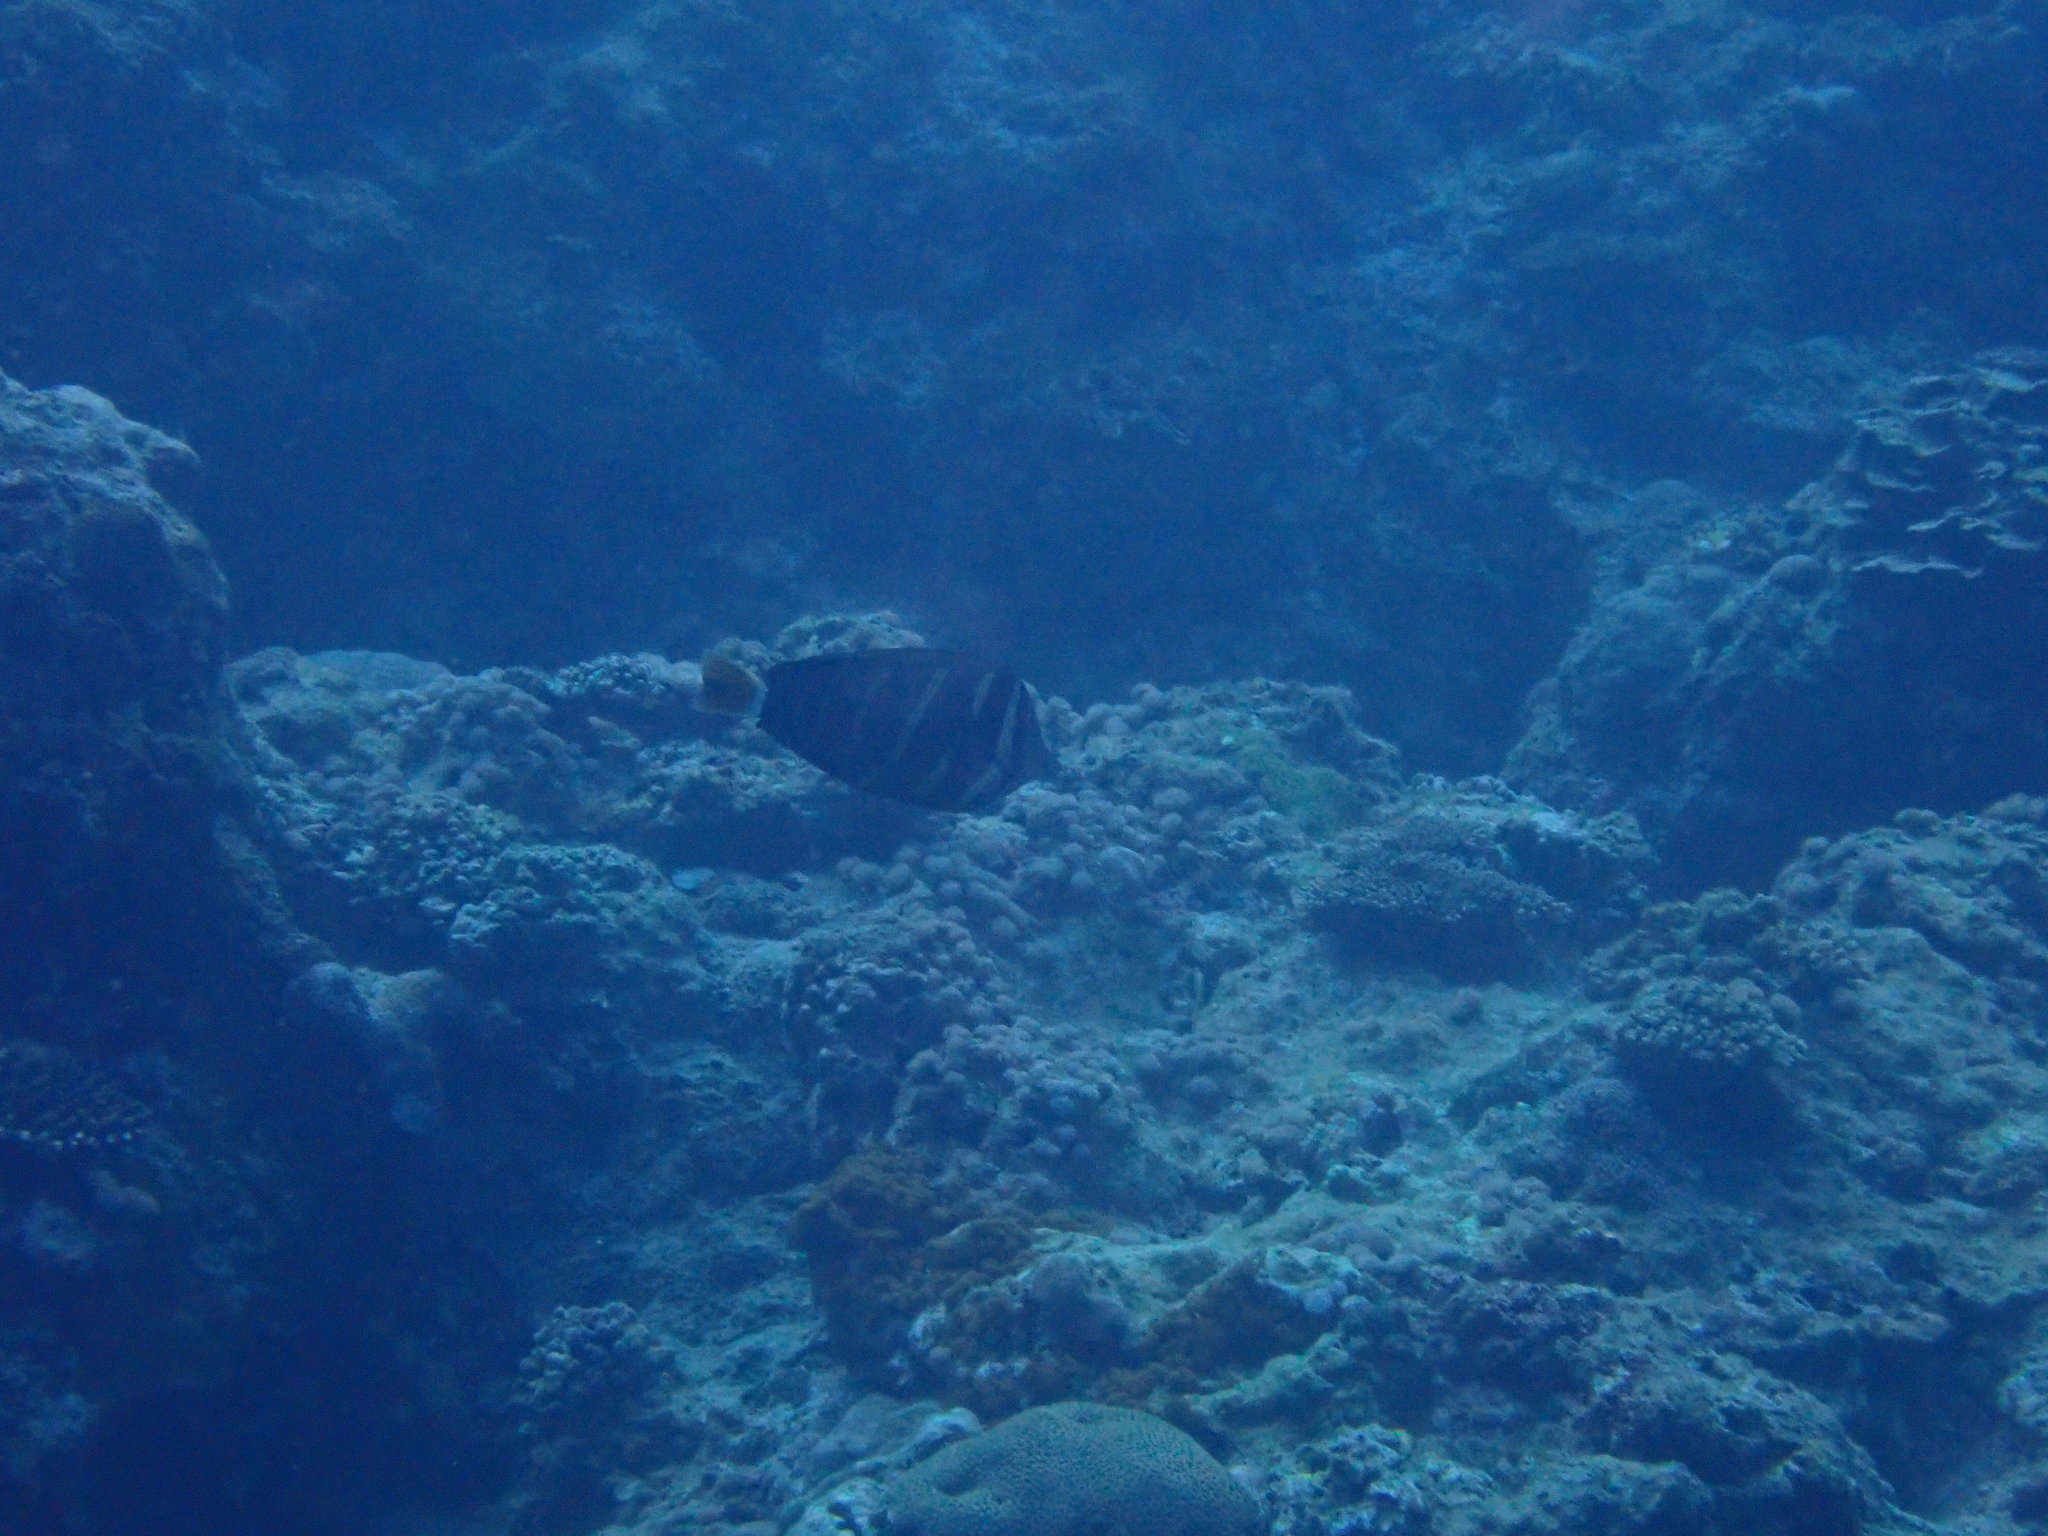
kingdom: Animalia
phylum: Chordata
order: Perciformes
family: Acanthuridae
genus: Zebrasoma
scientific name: Zebrasoma veliferum
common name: Sailfin surgeonfish
